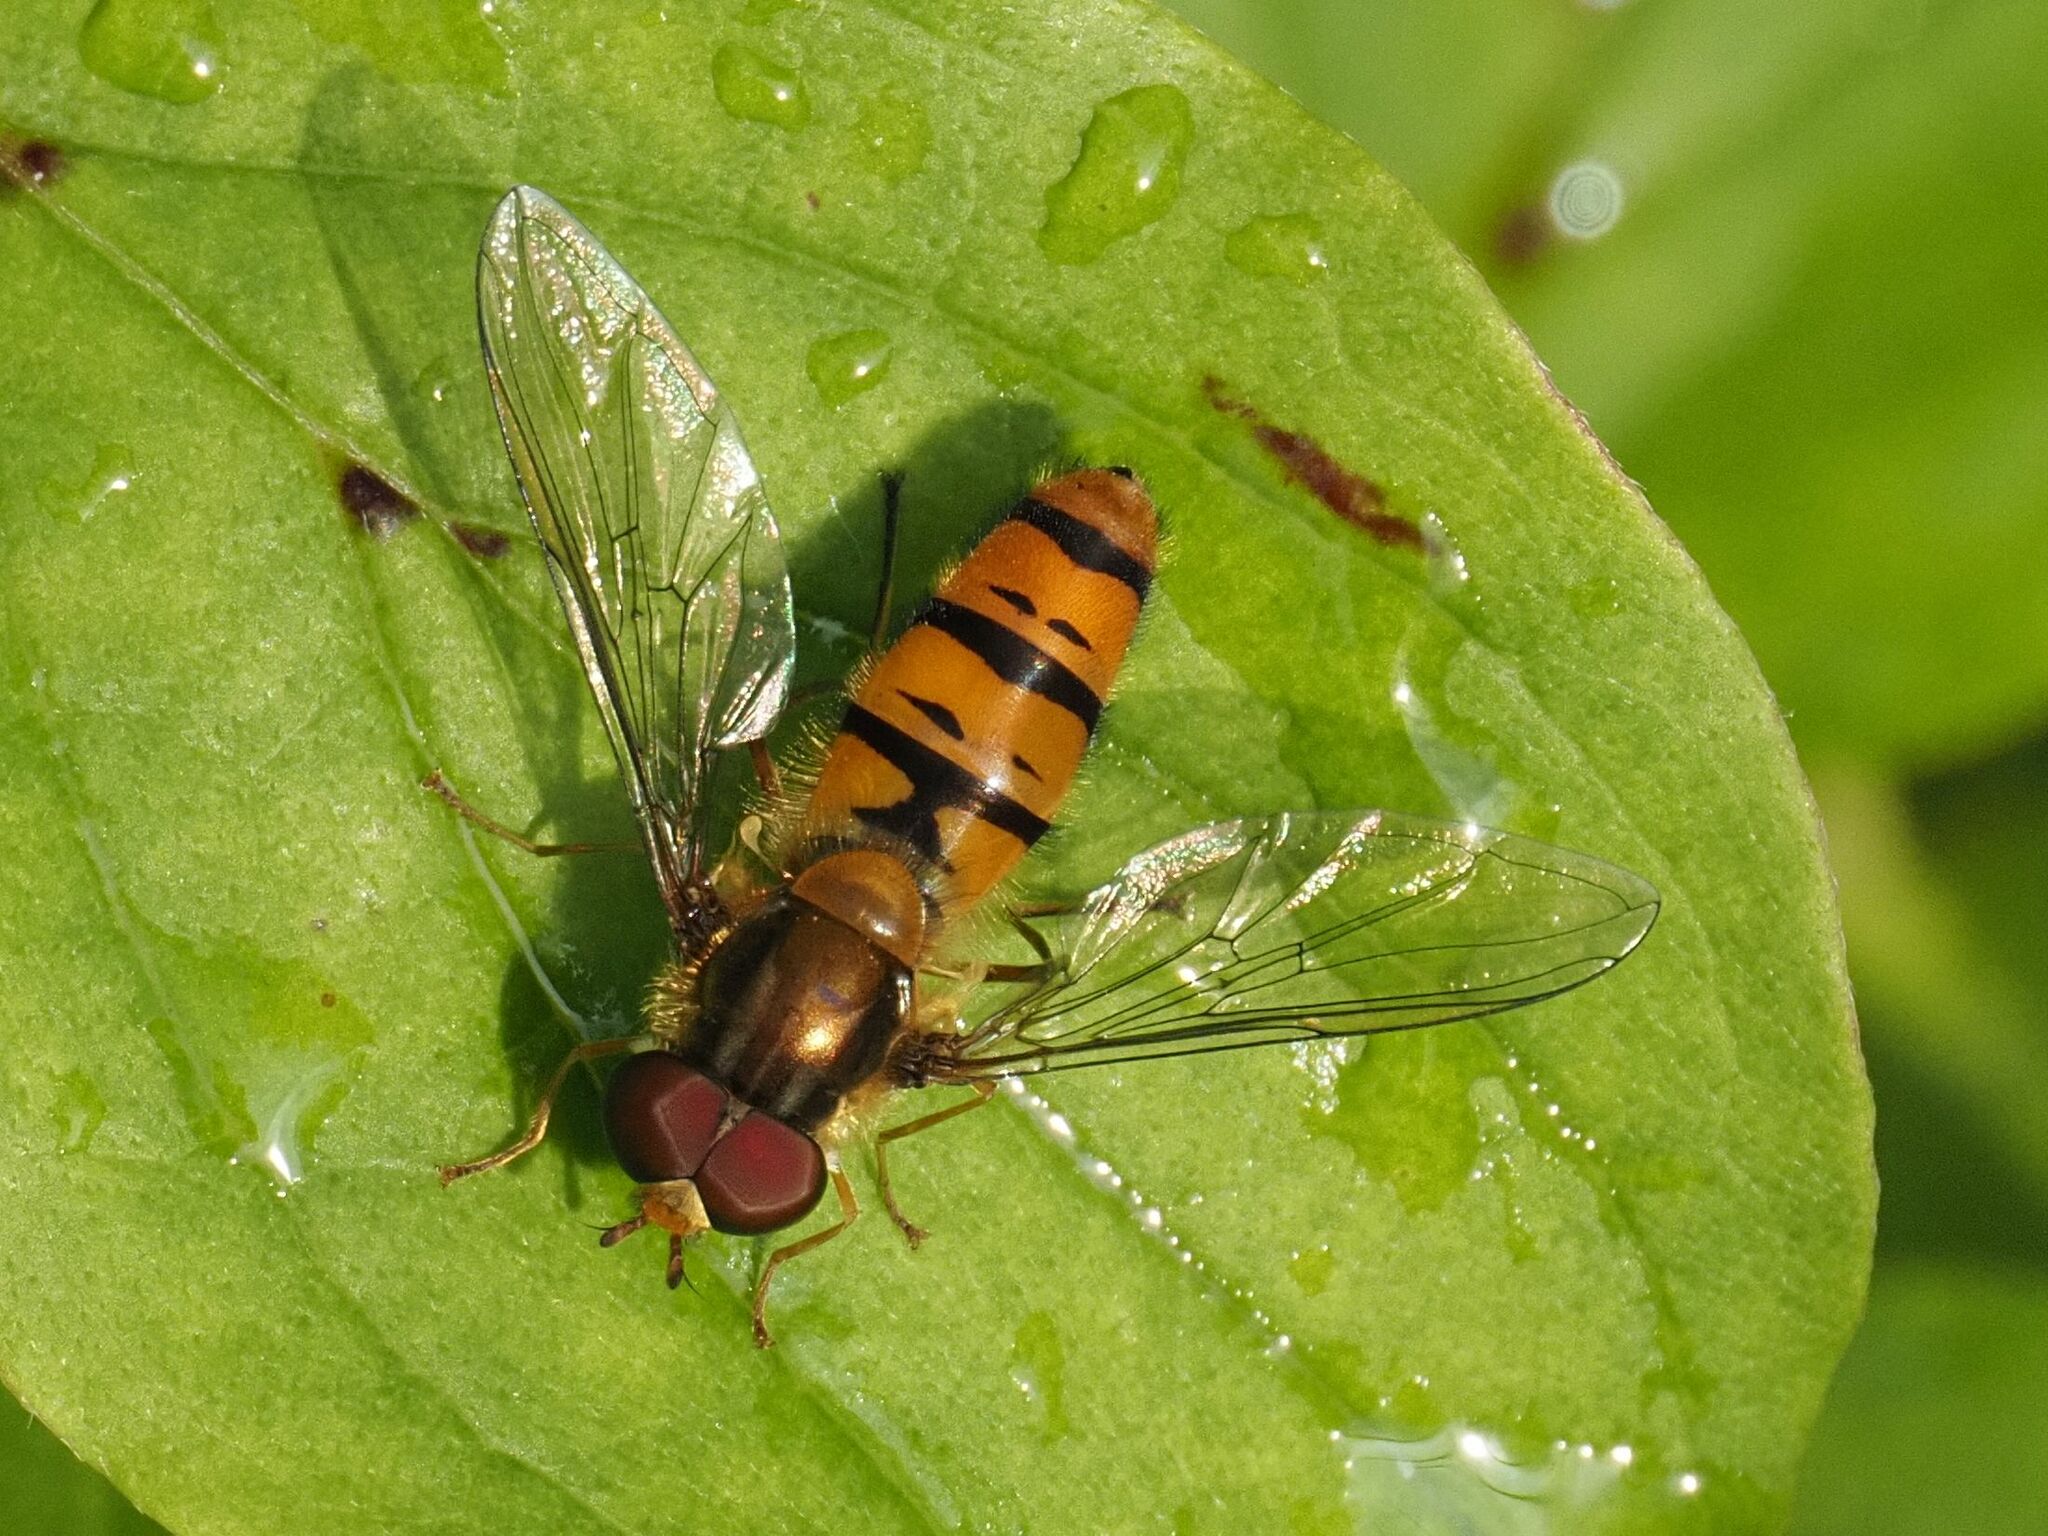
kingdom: Animalia
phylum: Arthropoda
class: Insecta
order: Diptera
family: Syrphidae
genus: Episyrphus
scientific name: Episyrphus balteatus
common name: Marmalade hoverfly
